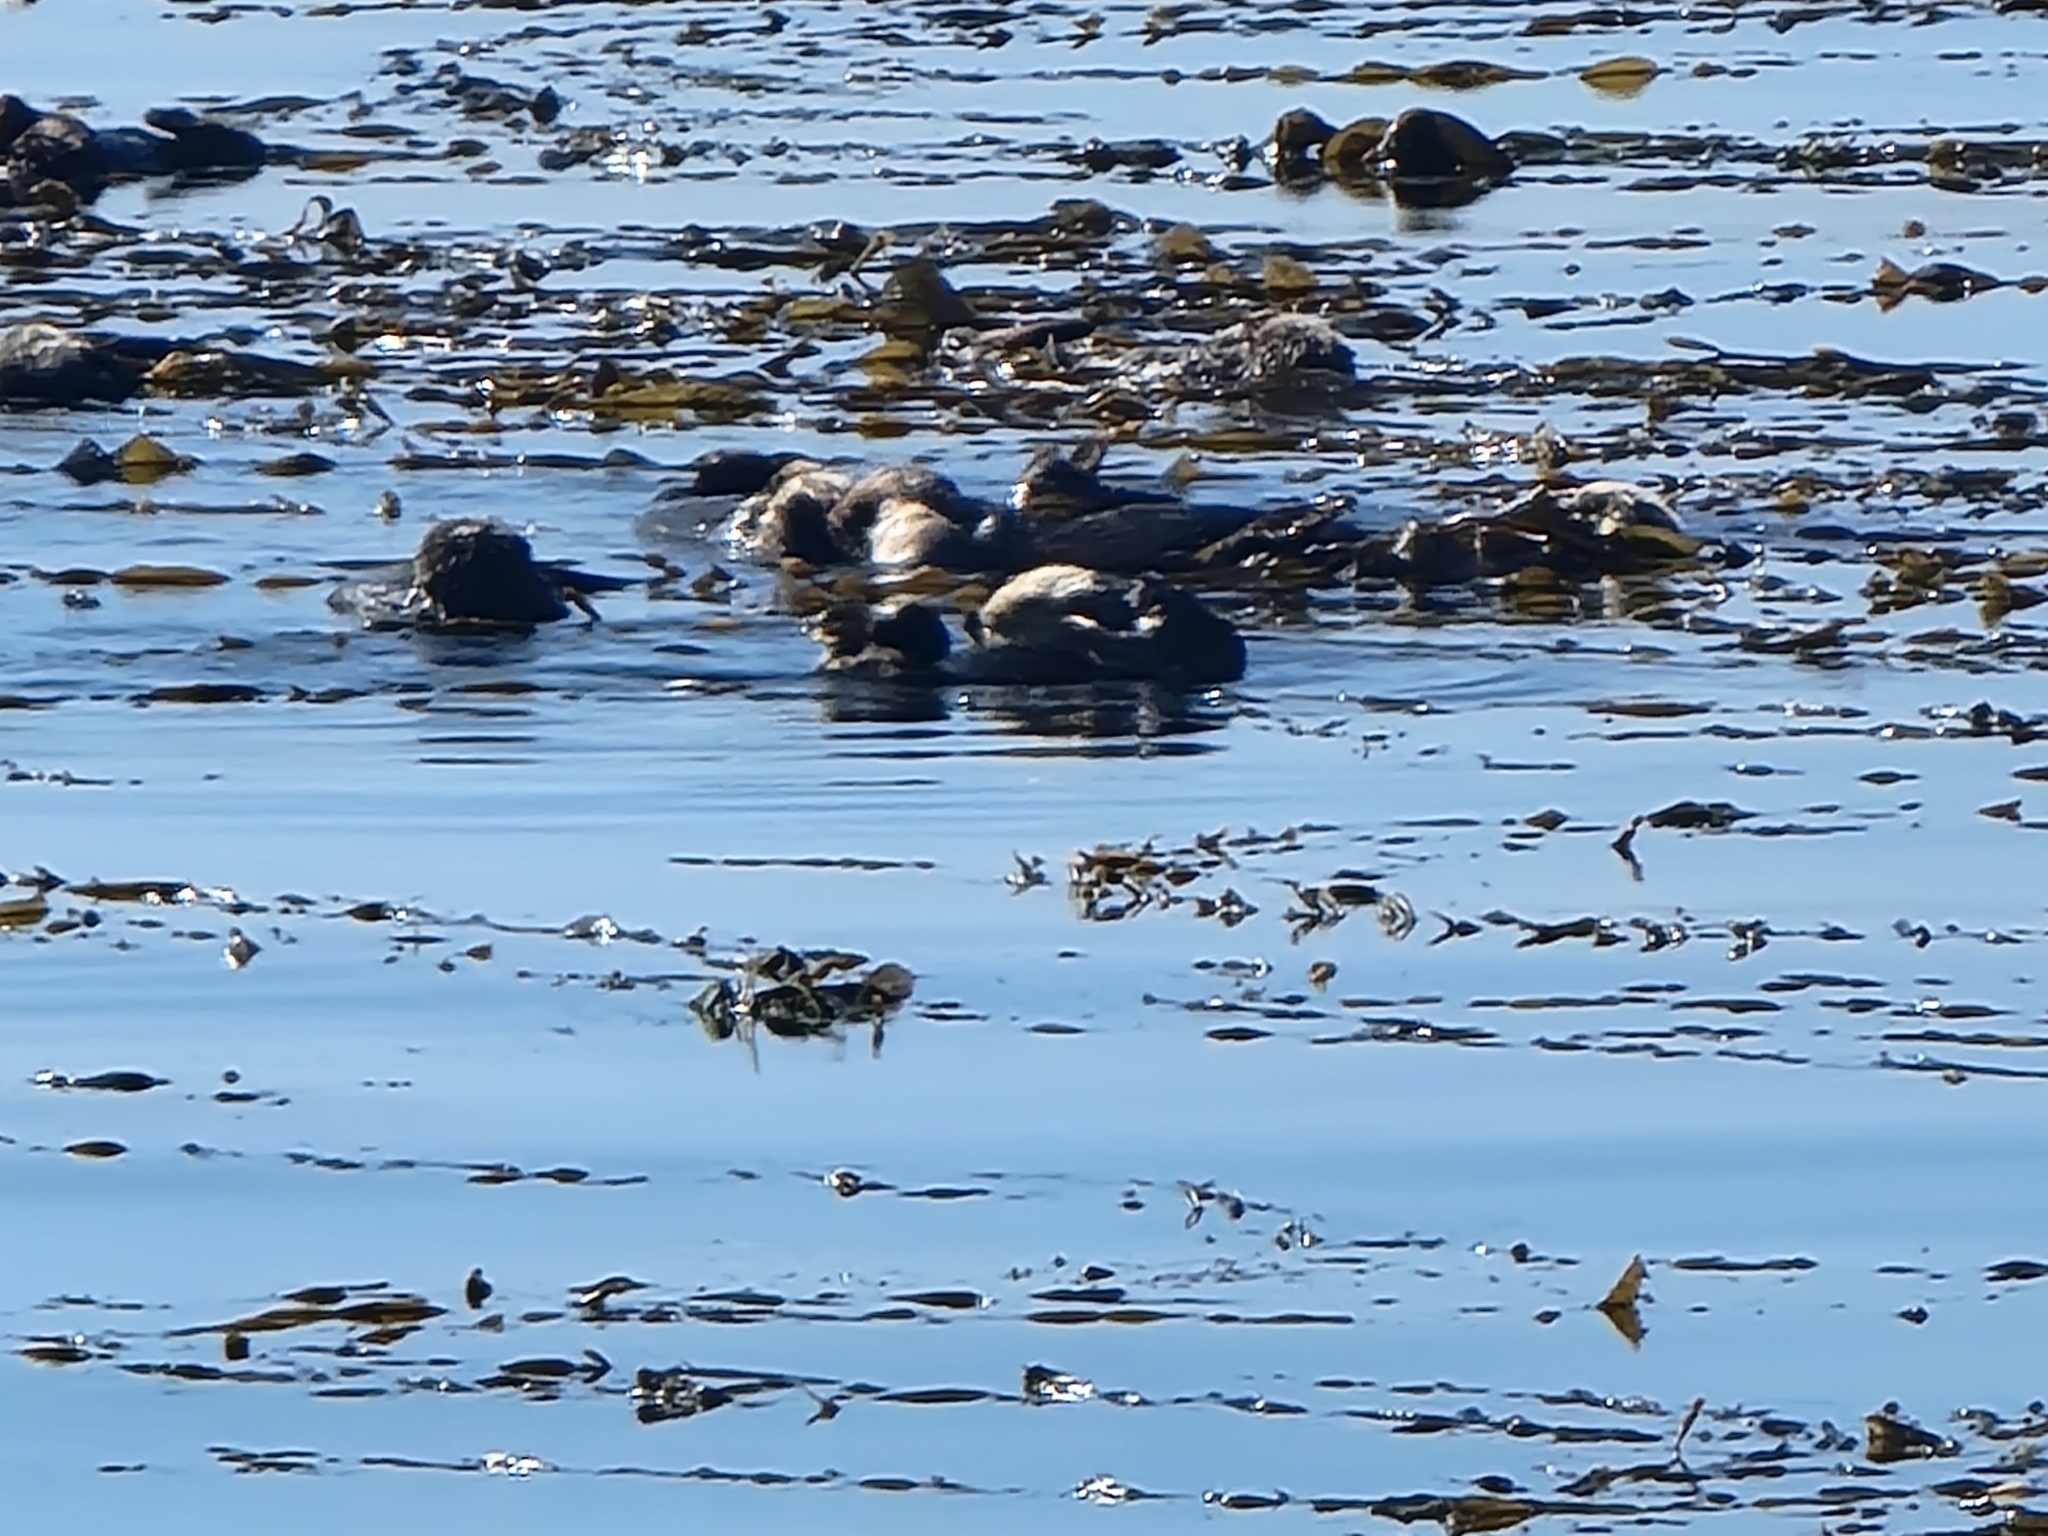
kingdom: Animalia
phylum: Chordata
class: Mammalia
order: Carnivora
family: Mustelidae
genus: Enhydra
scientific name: Enhydra lutris
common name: Sea otter
